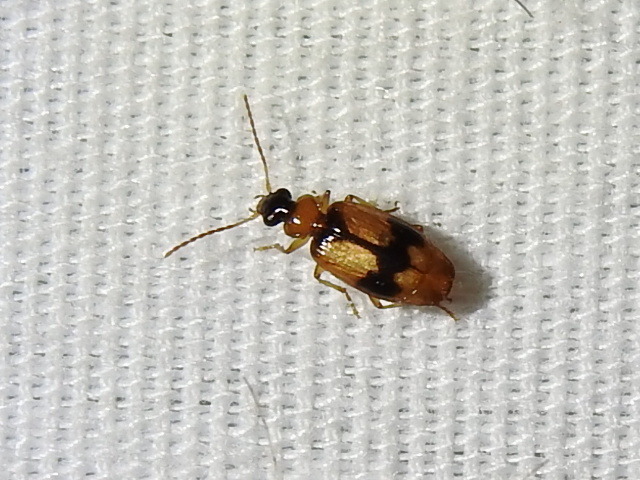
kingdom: Animalia
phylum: Arthropoda
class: Insecta
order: Coleoptera
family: Carabidae
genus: Lebia
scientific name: Lebia esurialis
